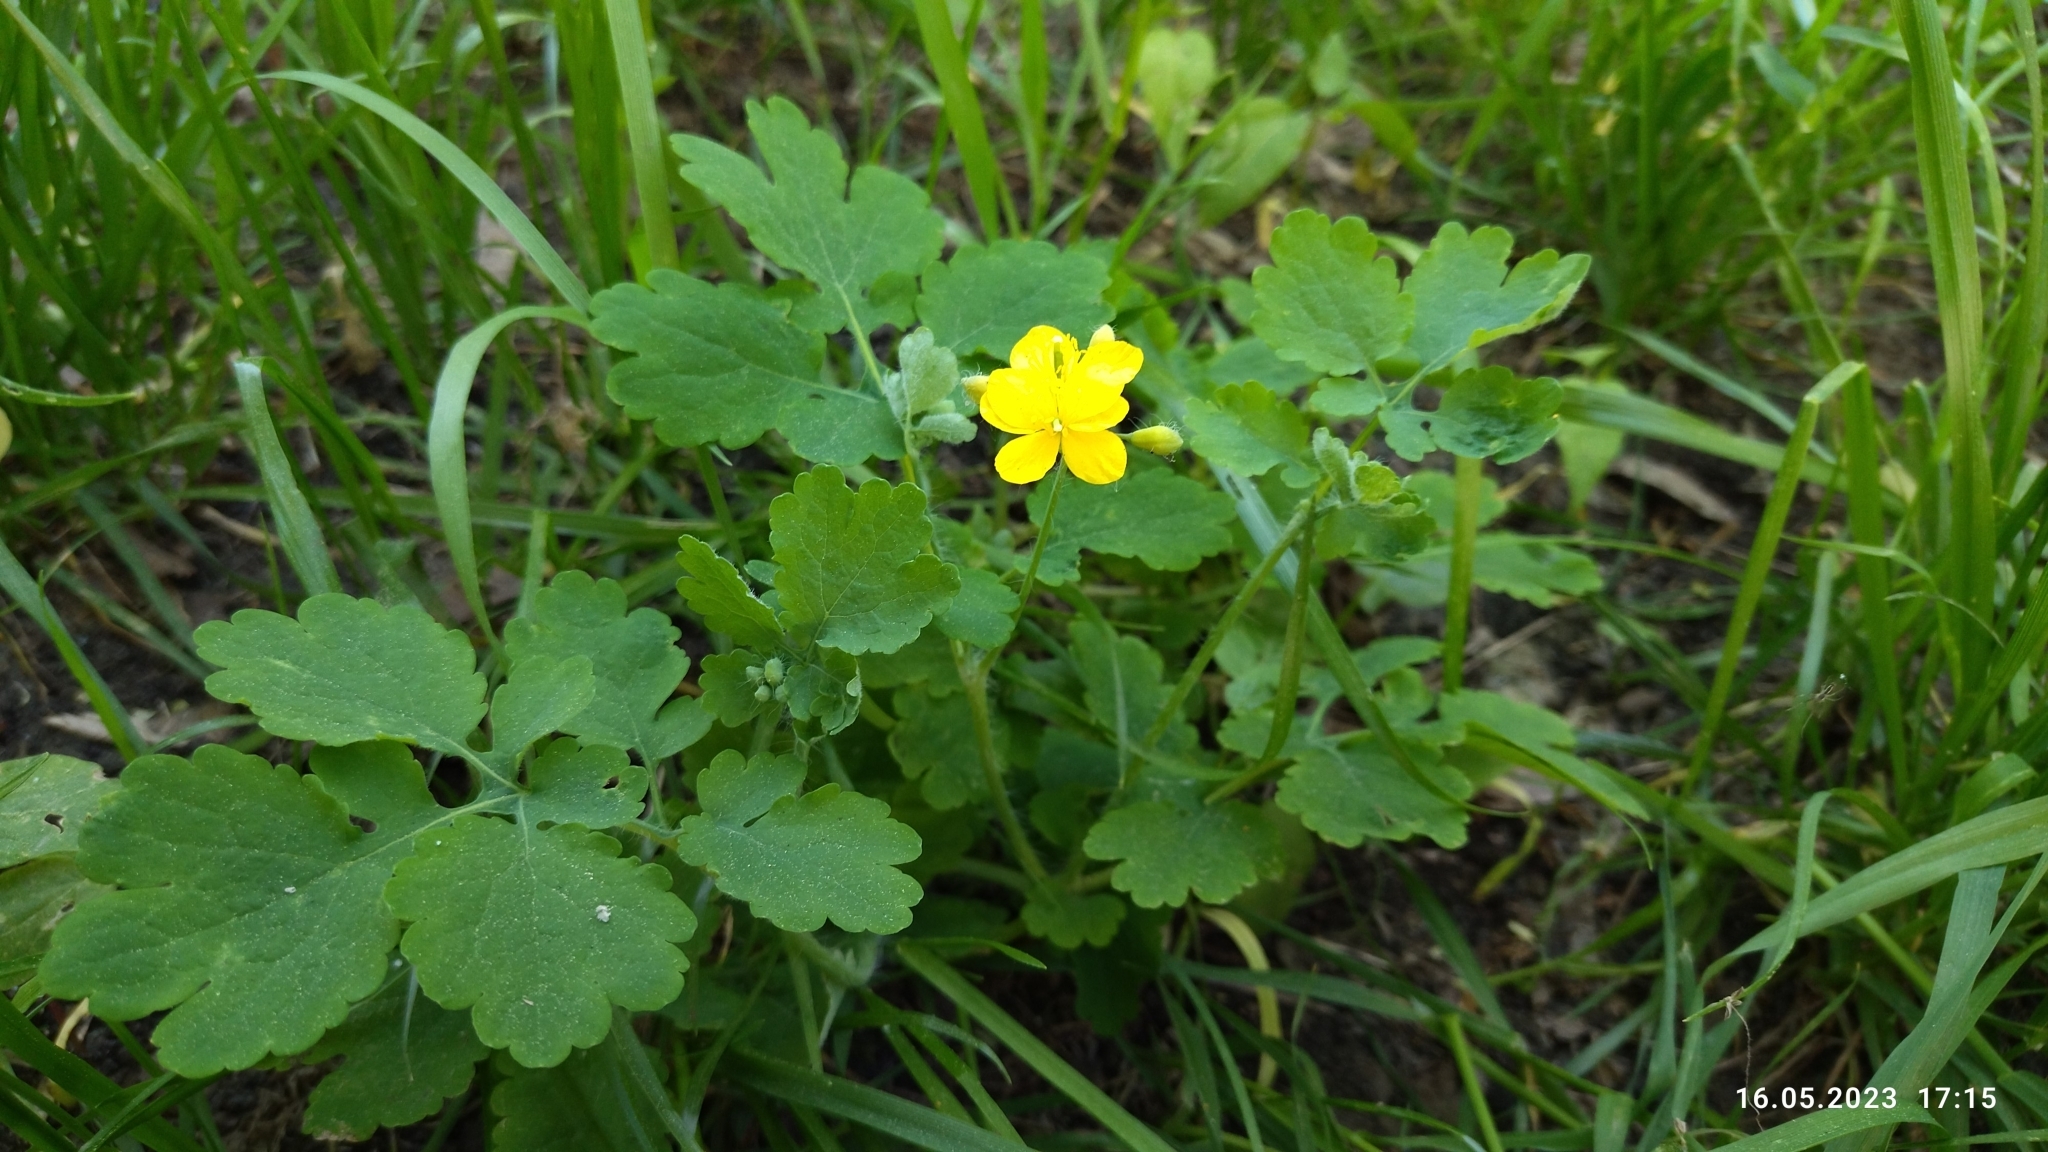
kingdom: Plantae
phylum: Tracheophyta
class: Magnoliopsida
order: Ranunculales
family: Papaveraceae
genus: Chelidonium
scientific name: Chelidonium majus
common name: Greater celandine
